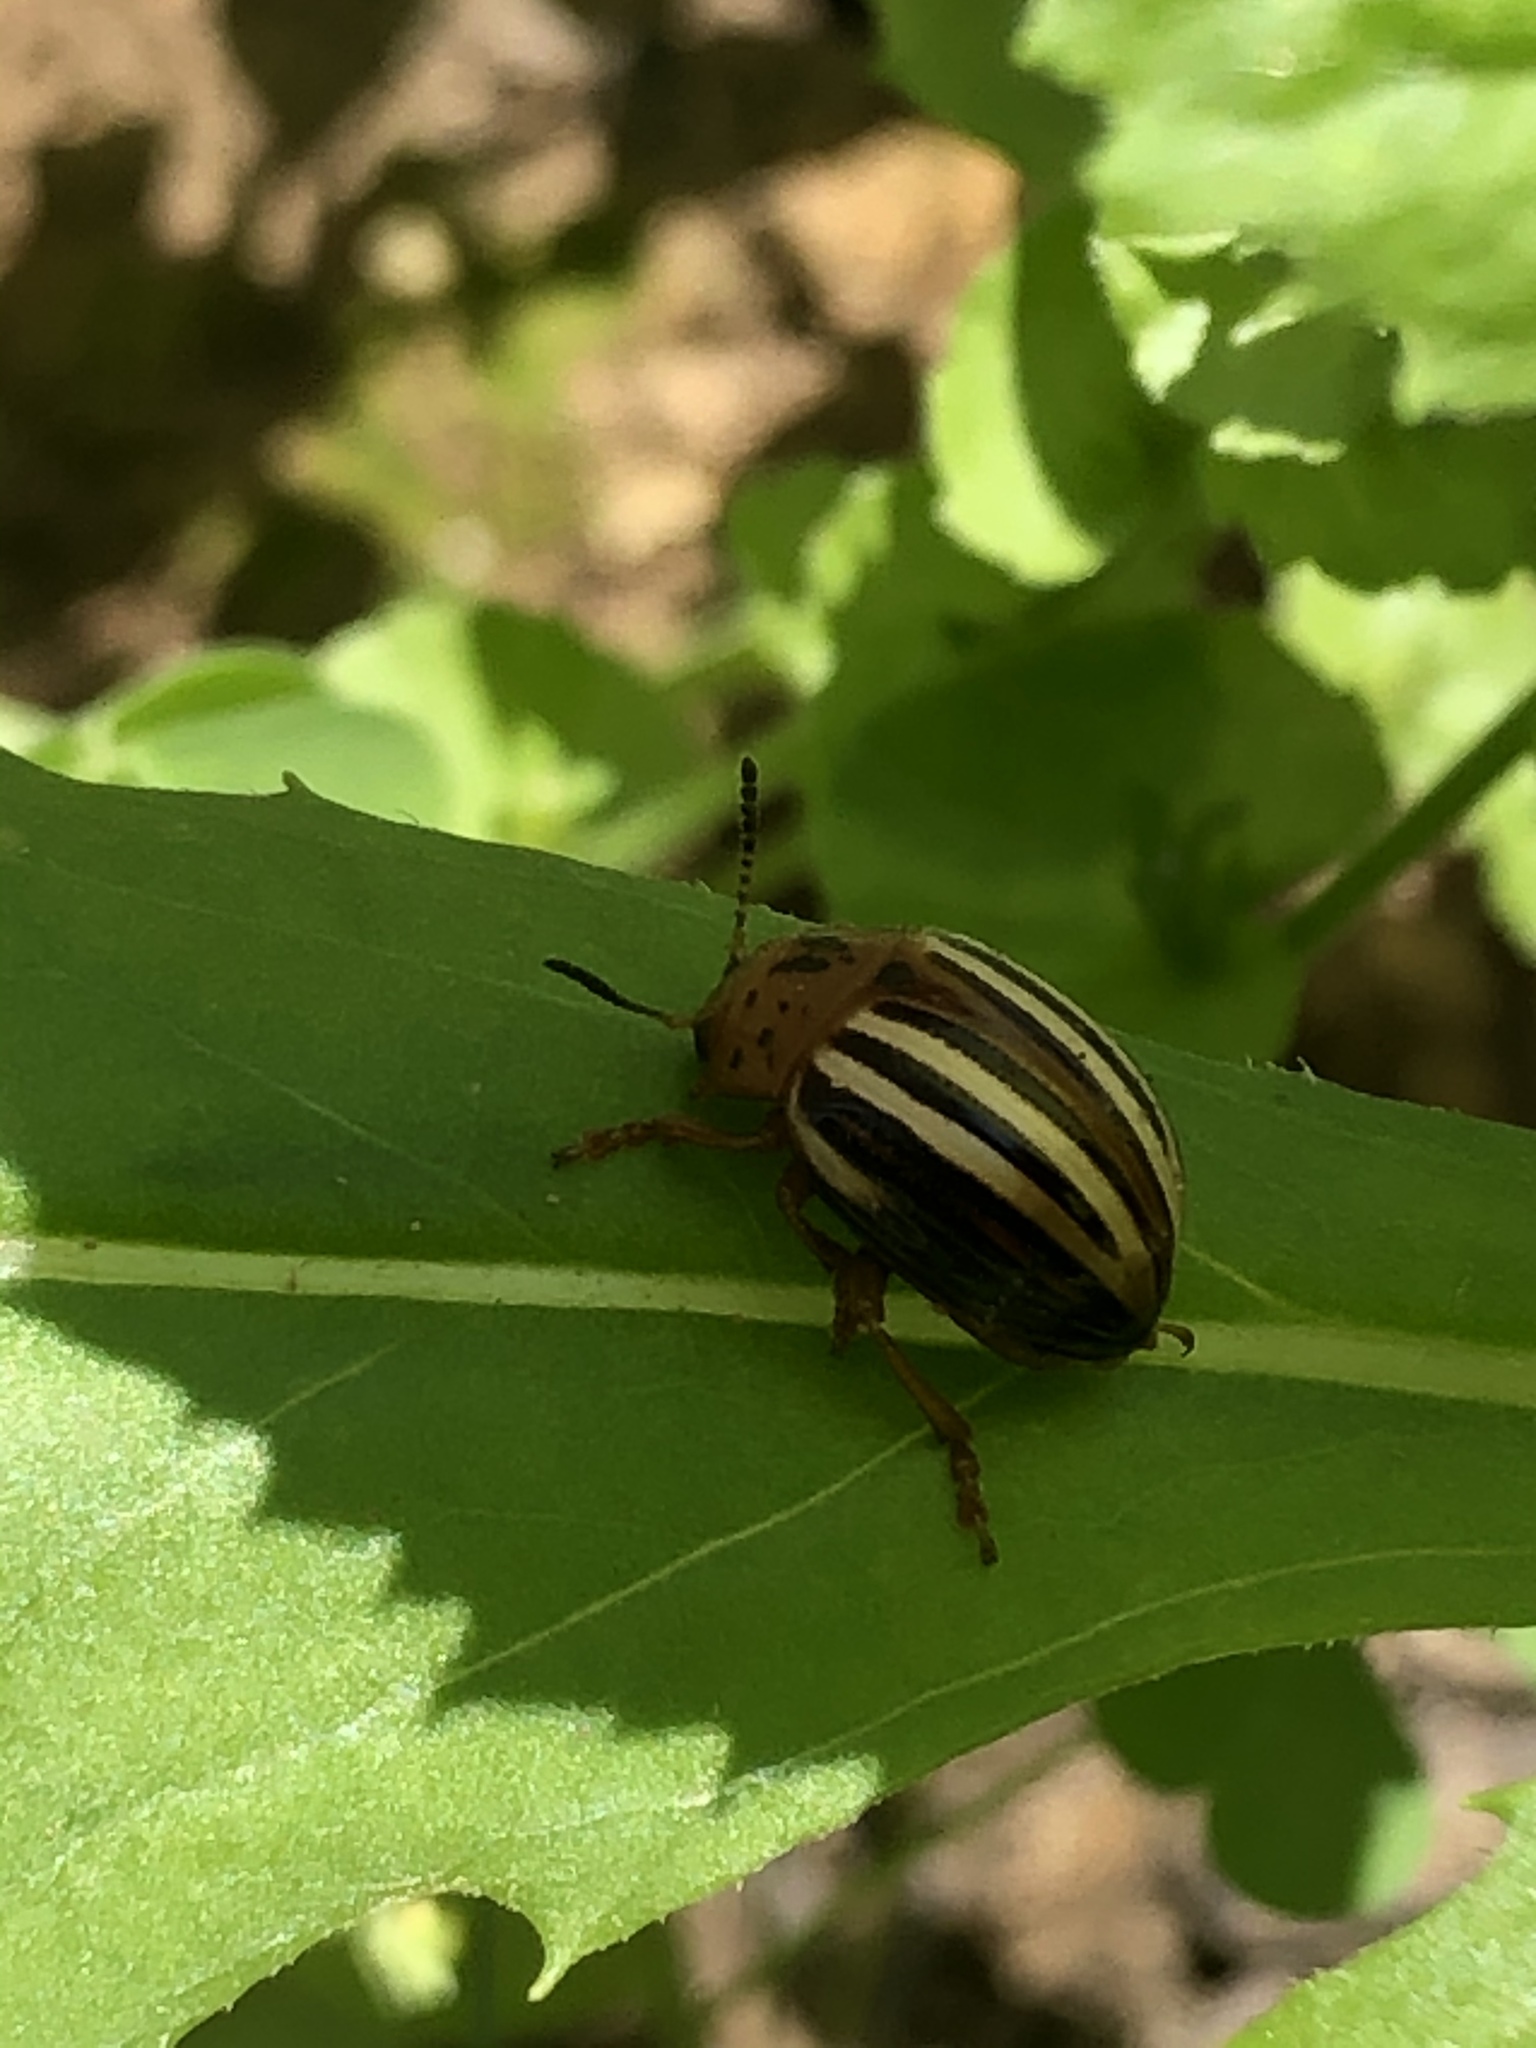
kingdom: Animalia
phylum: Arthropoda
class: Insecta
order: Coleoptera
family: Chrysomelidae
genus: Leptinotarsa
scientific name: Leptinotarsa juncta
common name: False potato beetle
